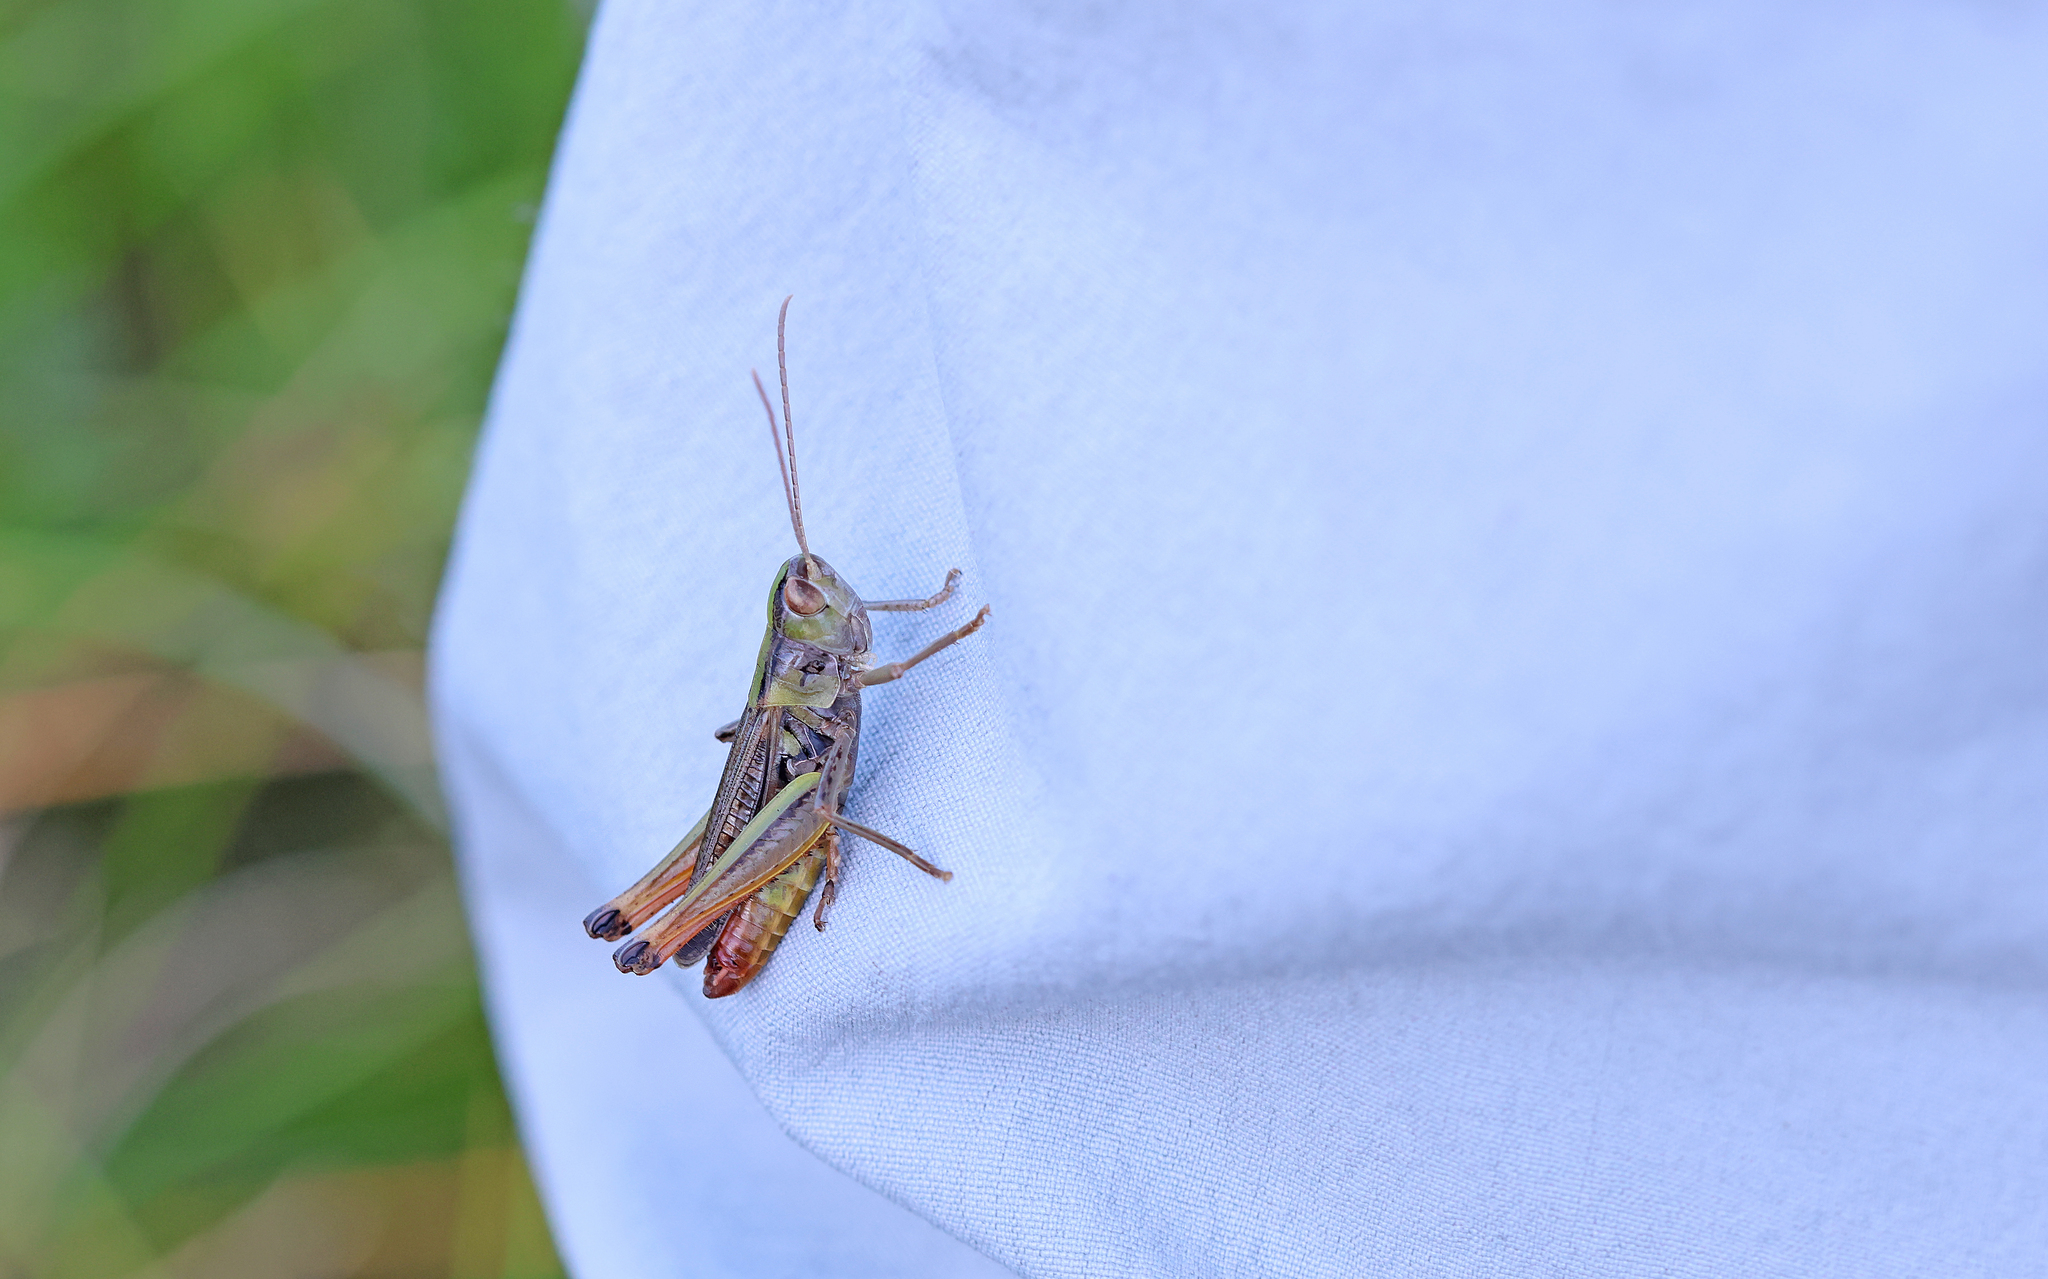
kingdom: Animalia
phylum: Arthropoda
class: Insecta
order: Orthoptera
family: Acrididae
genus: Stenobothrus
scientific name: Stenobothrus nigromaculatus
